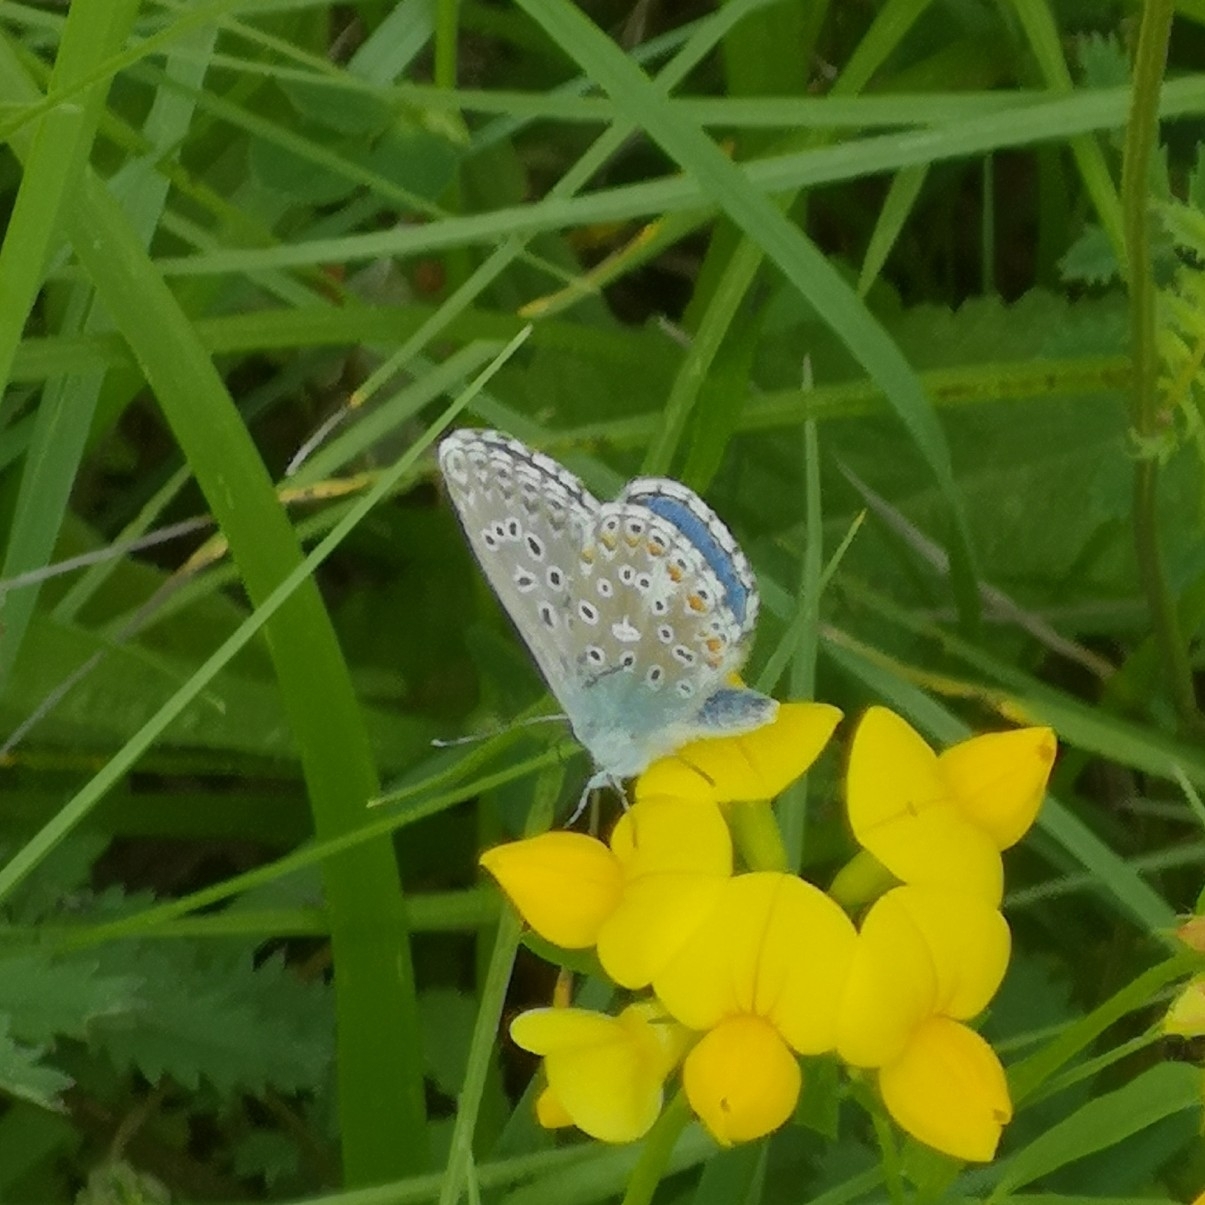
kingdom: Animalia
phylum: Arthropoda
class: Insecta
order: Lepidoptera
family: Lycaenidae
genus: Lysandra
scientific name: Lysandra bellargus
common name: Adonis blue
